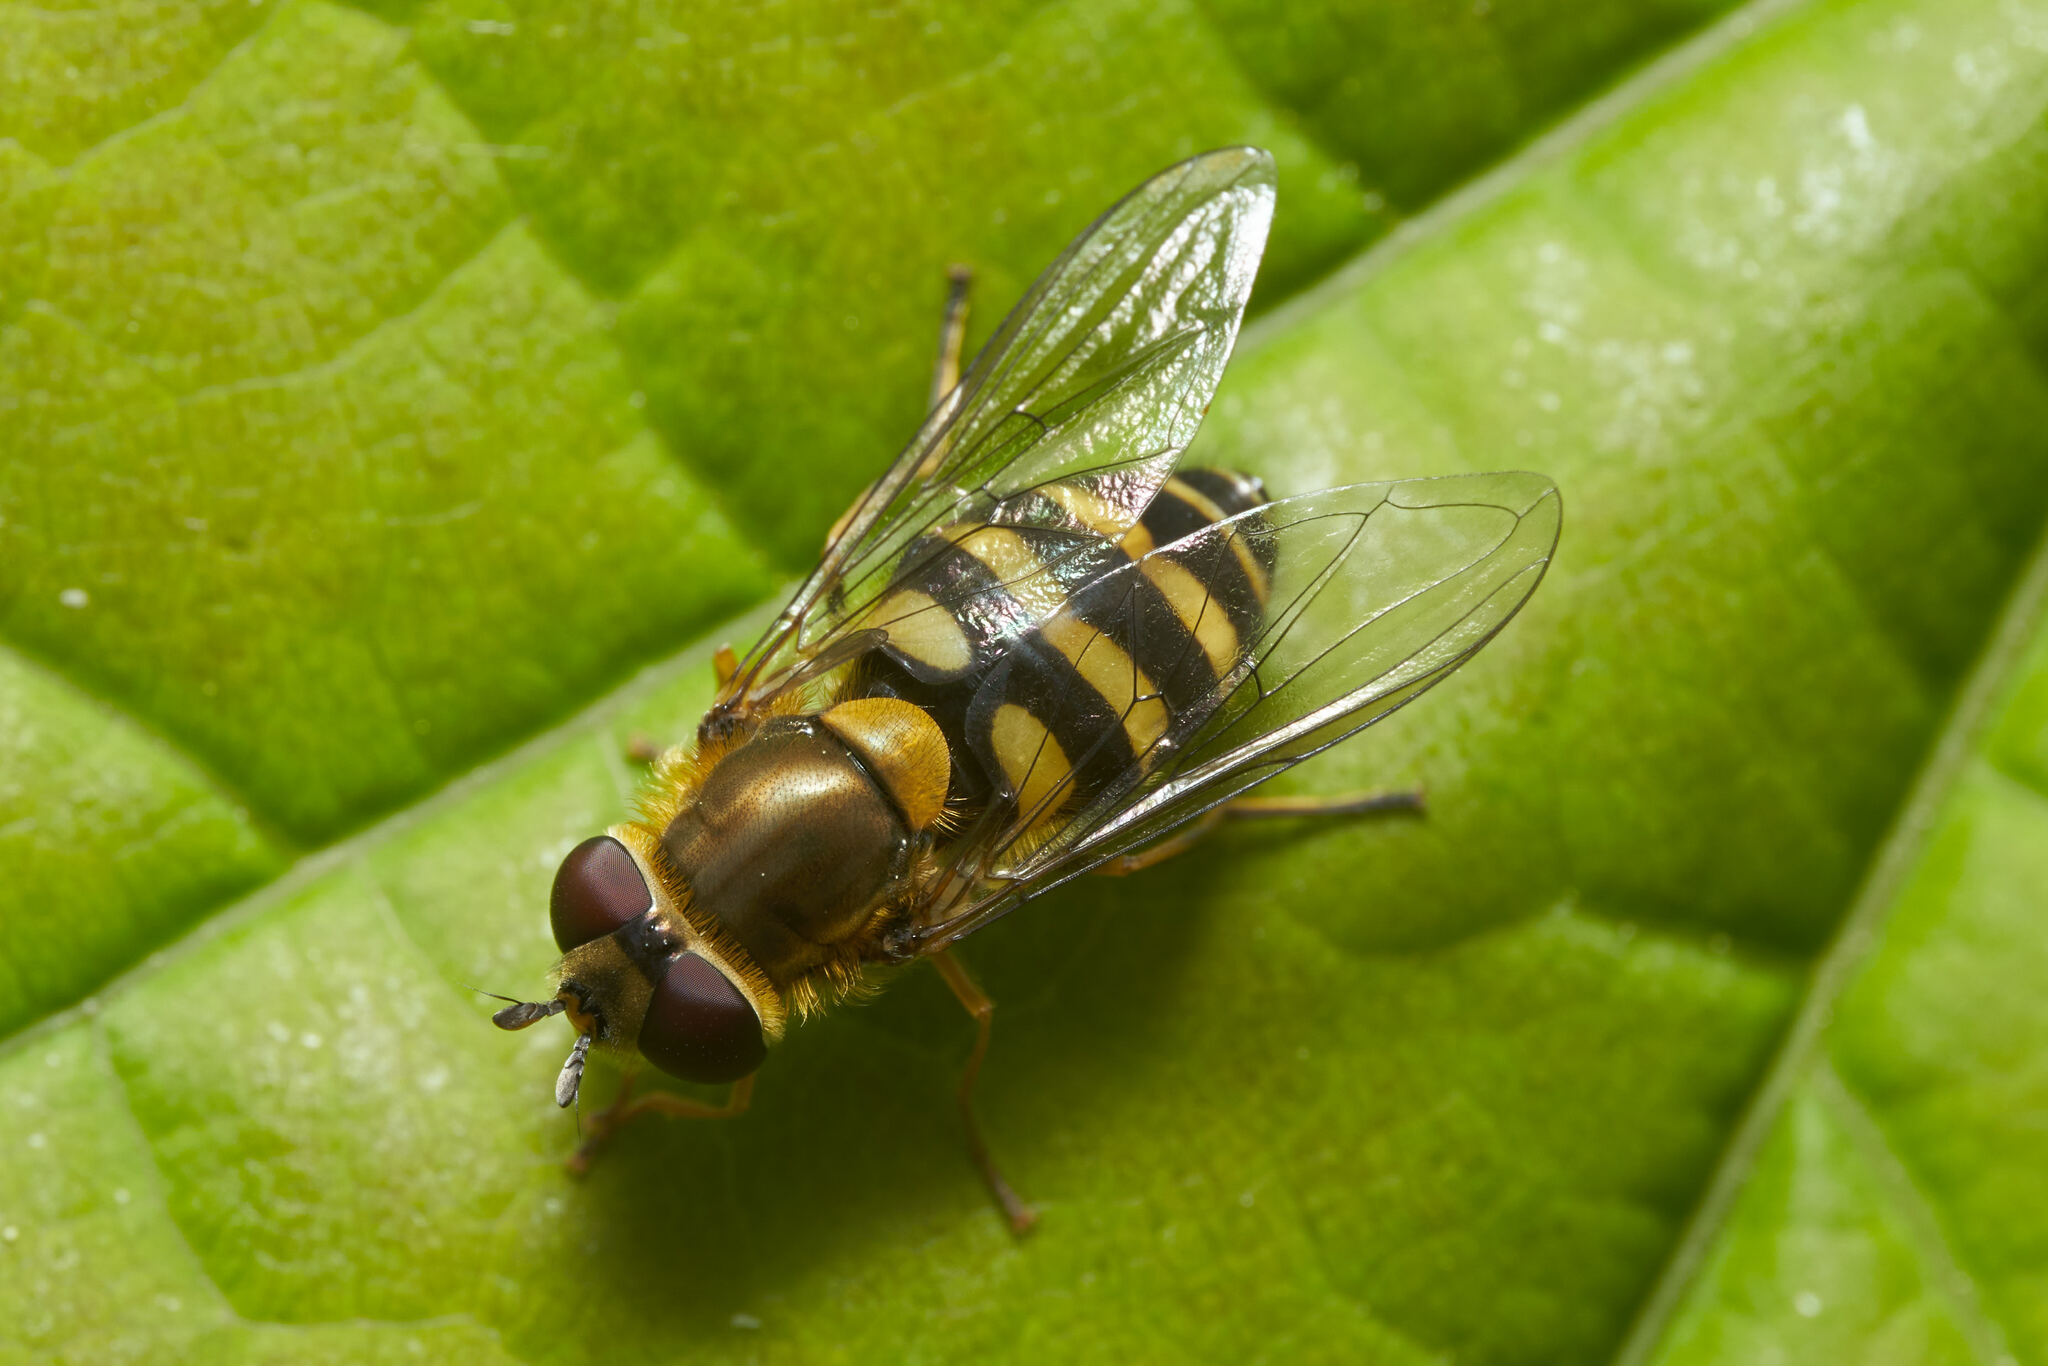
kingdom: Animalia
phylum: Arthropoda
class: Insecta
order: Diptera
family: Syrphidae
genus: Syrphus
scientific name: Syrphus
